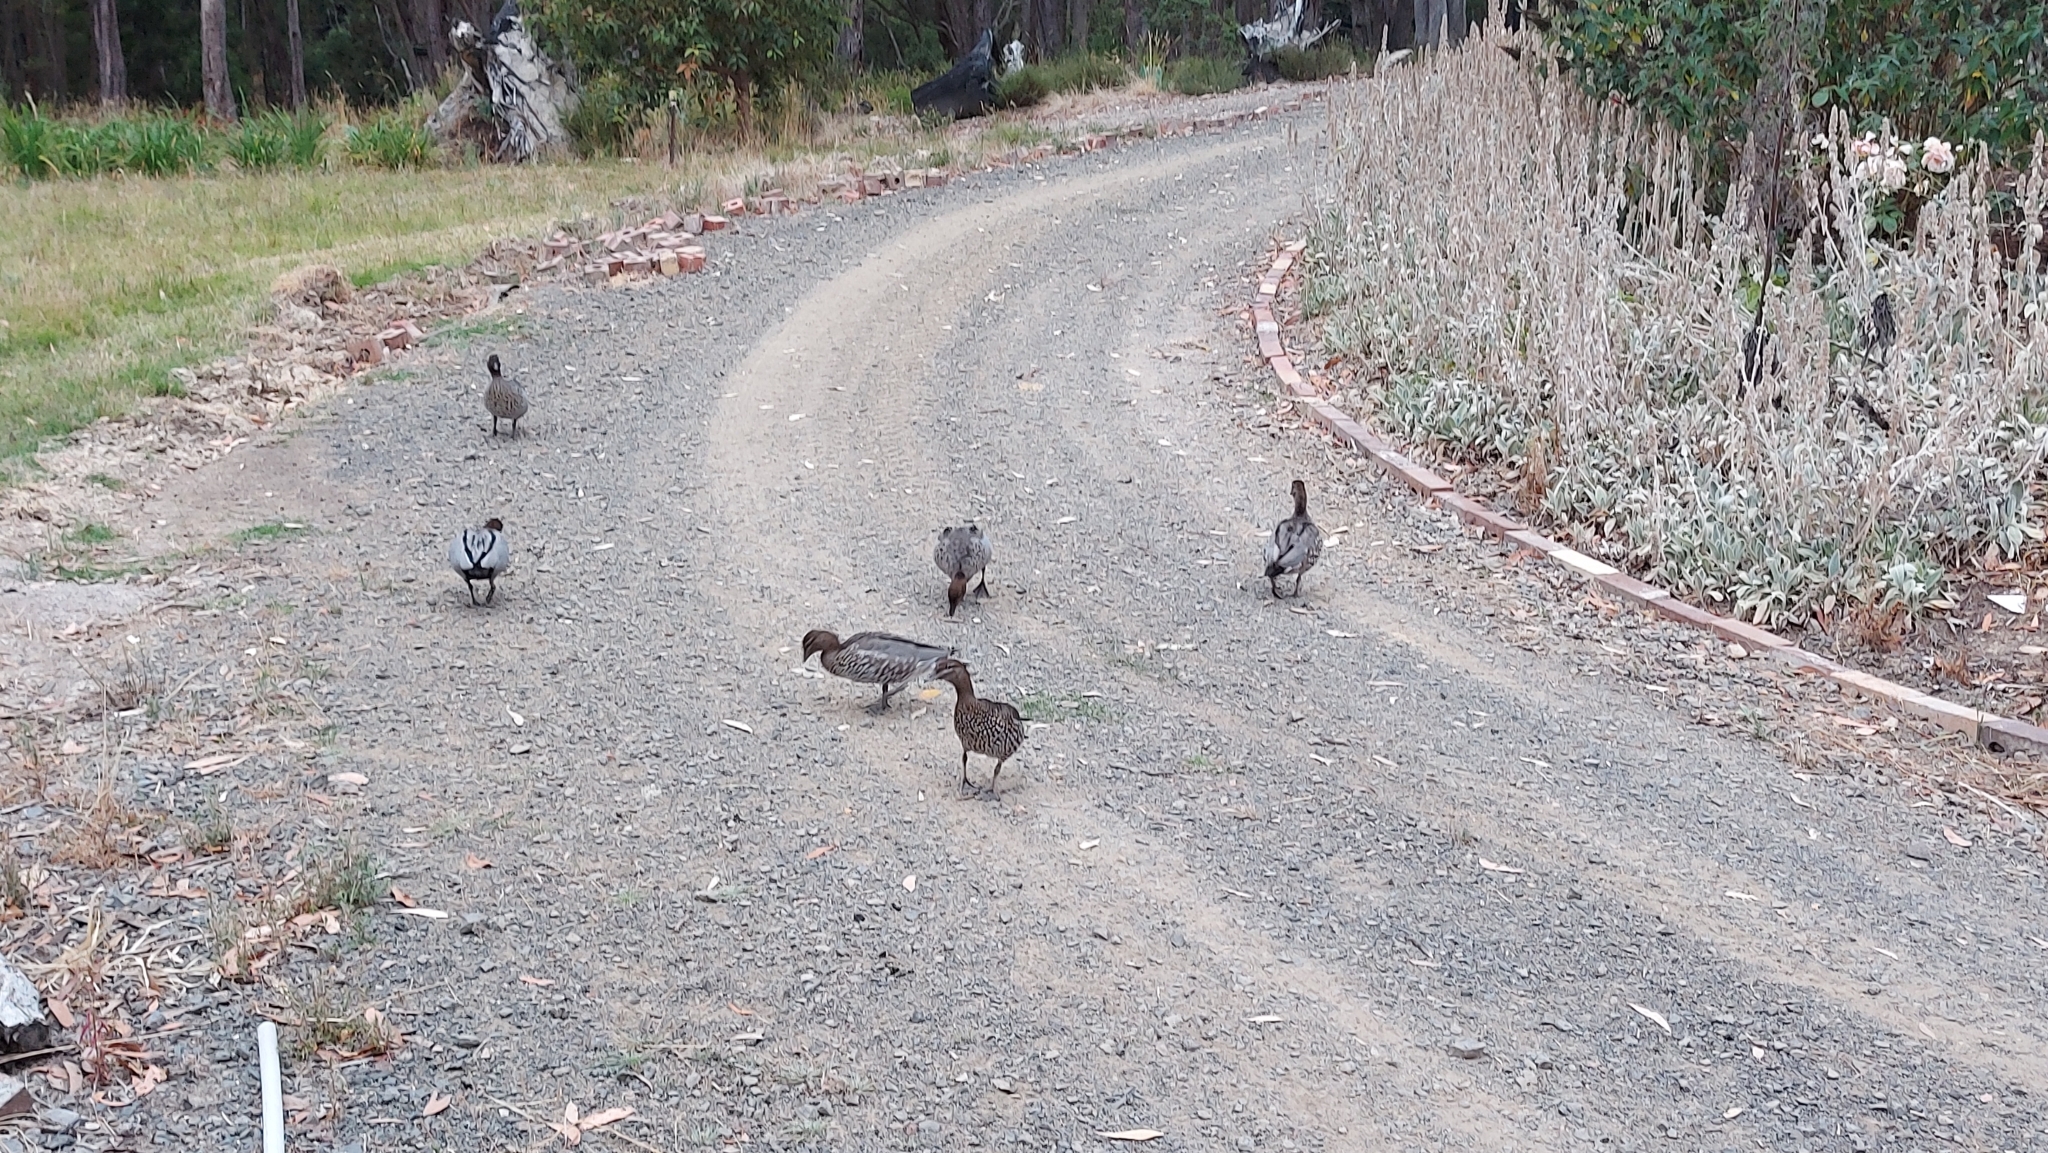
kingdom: Animalia
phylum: Chordata
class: Aves
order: Anseriformes
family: Anatidae
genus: Chenonetta
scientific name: Chenonetta jubata
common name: Maned duck
